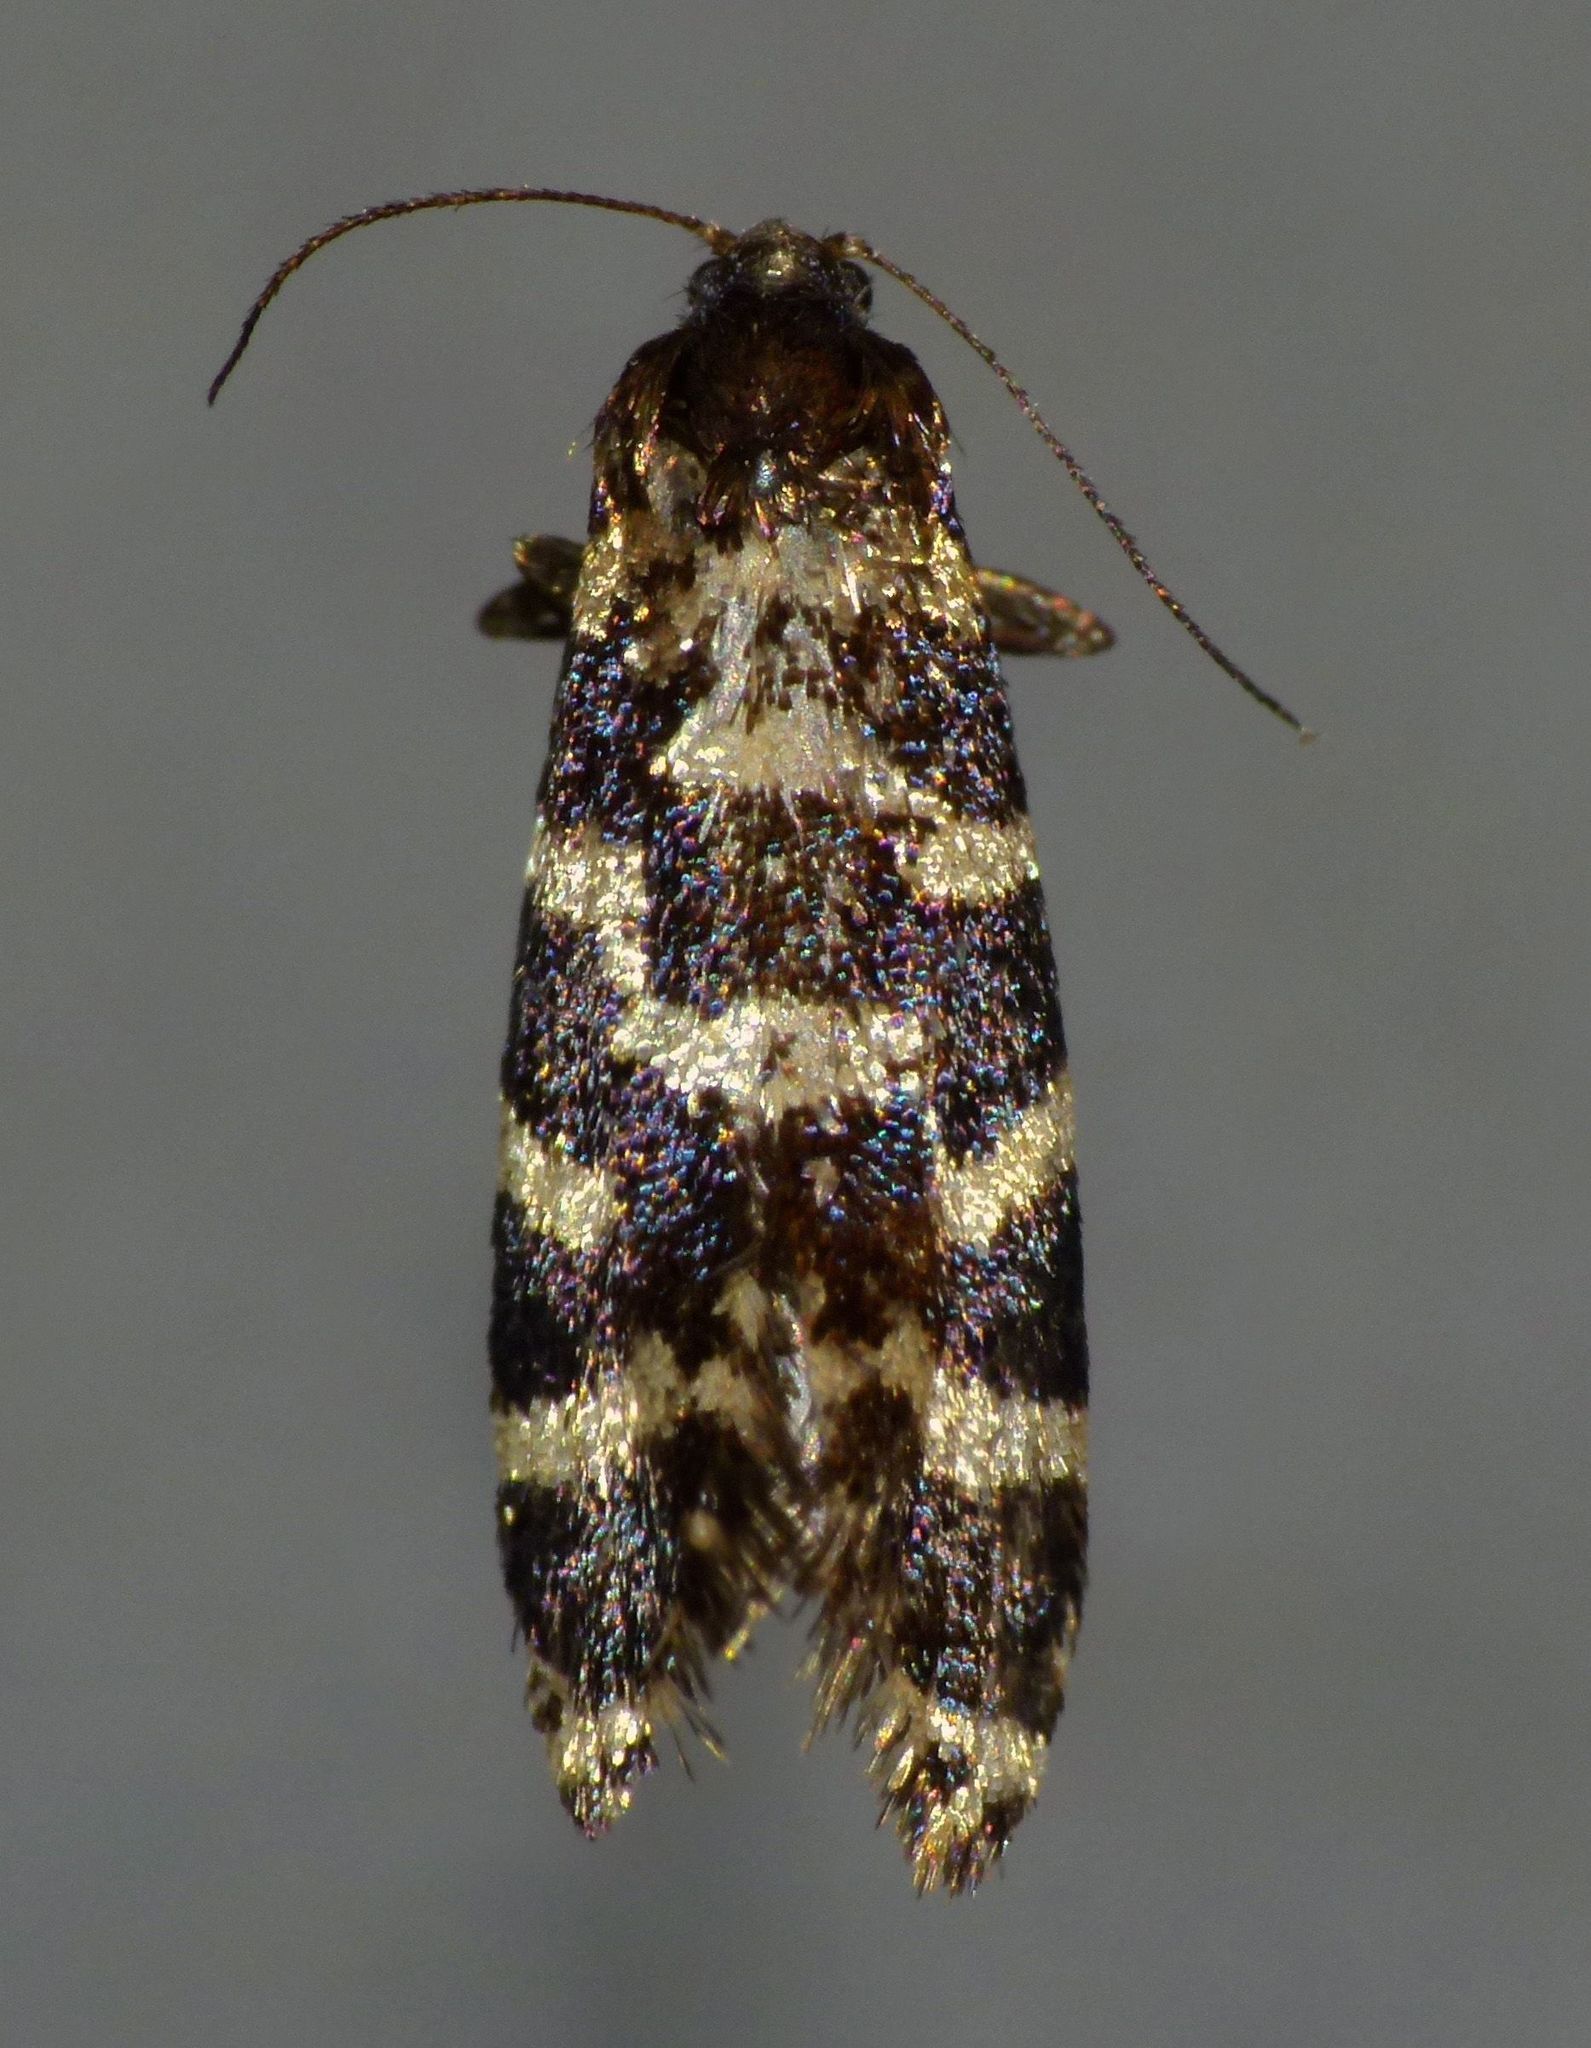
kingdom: Animalia
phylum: Arthropoda
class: Insecta
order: Lepidoptera
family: Psychidae
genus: Mallobathra
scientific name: Mallobathra memotuina
